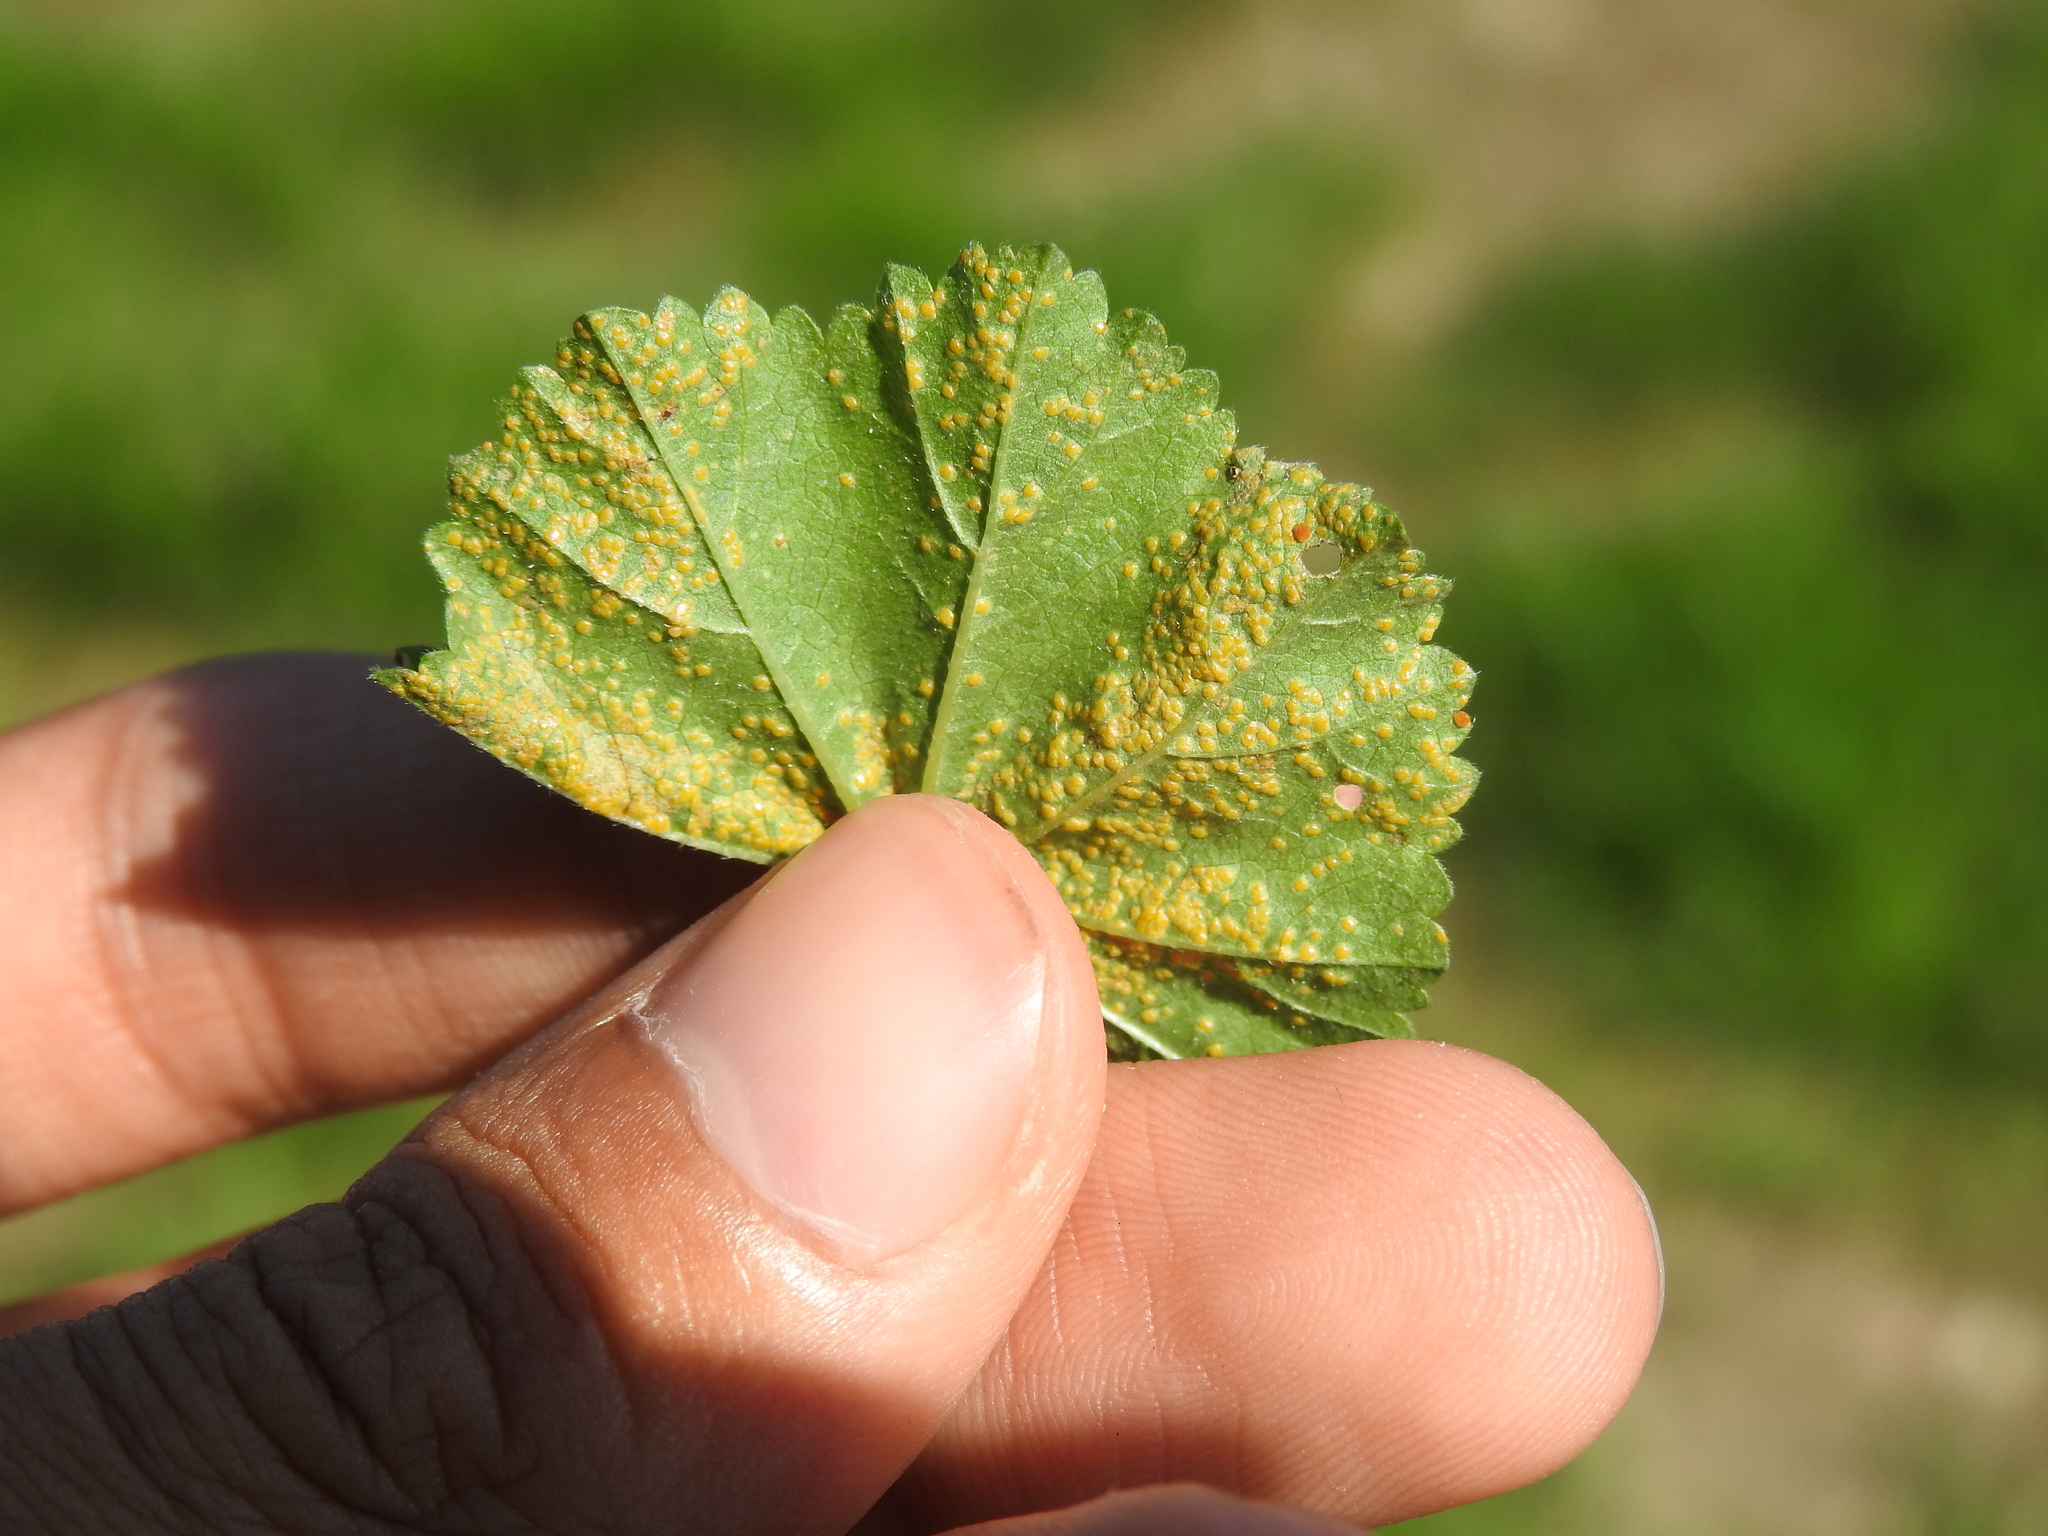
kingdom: Fungi
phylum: Basidiomycota
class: Pucciniomycetes
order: Pucciniales
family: Pucciniaceae
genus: Puccinia
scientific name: Puccinia malvacearum
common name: Hollyhock rust
